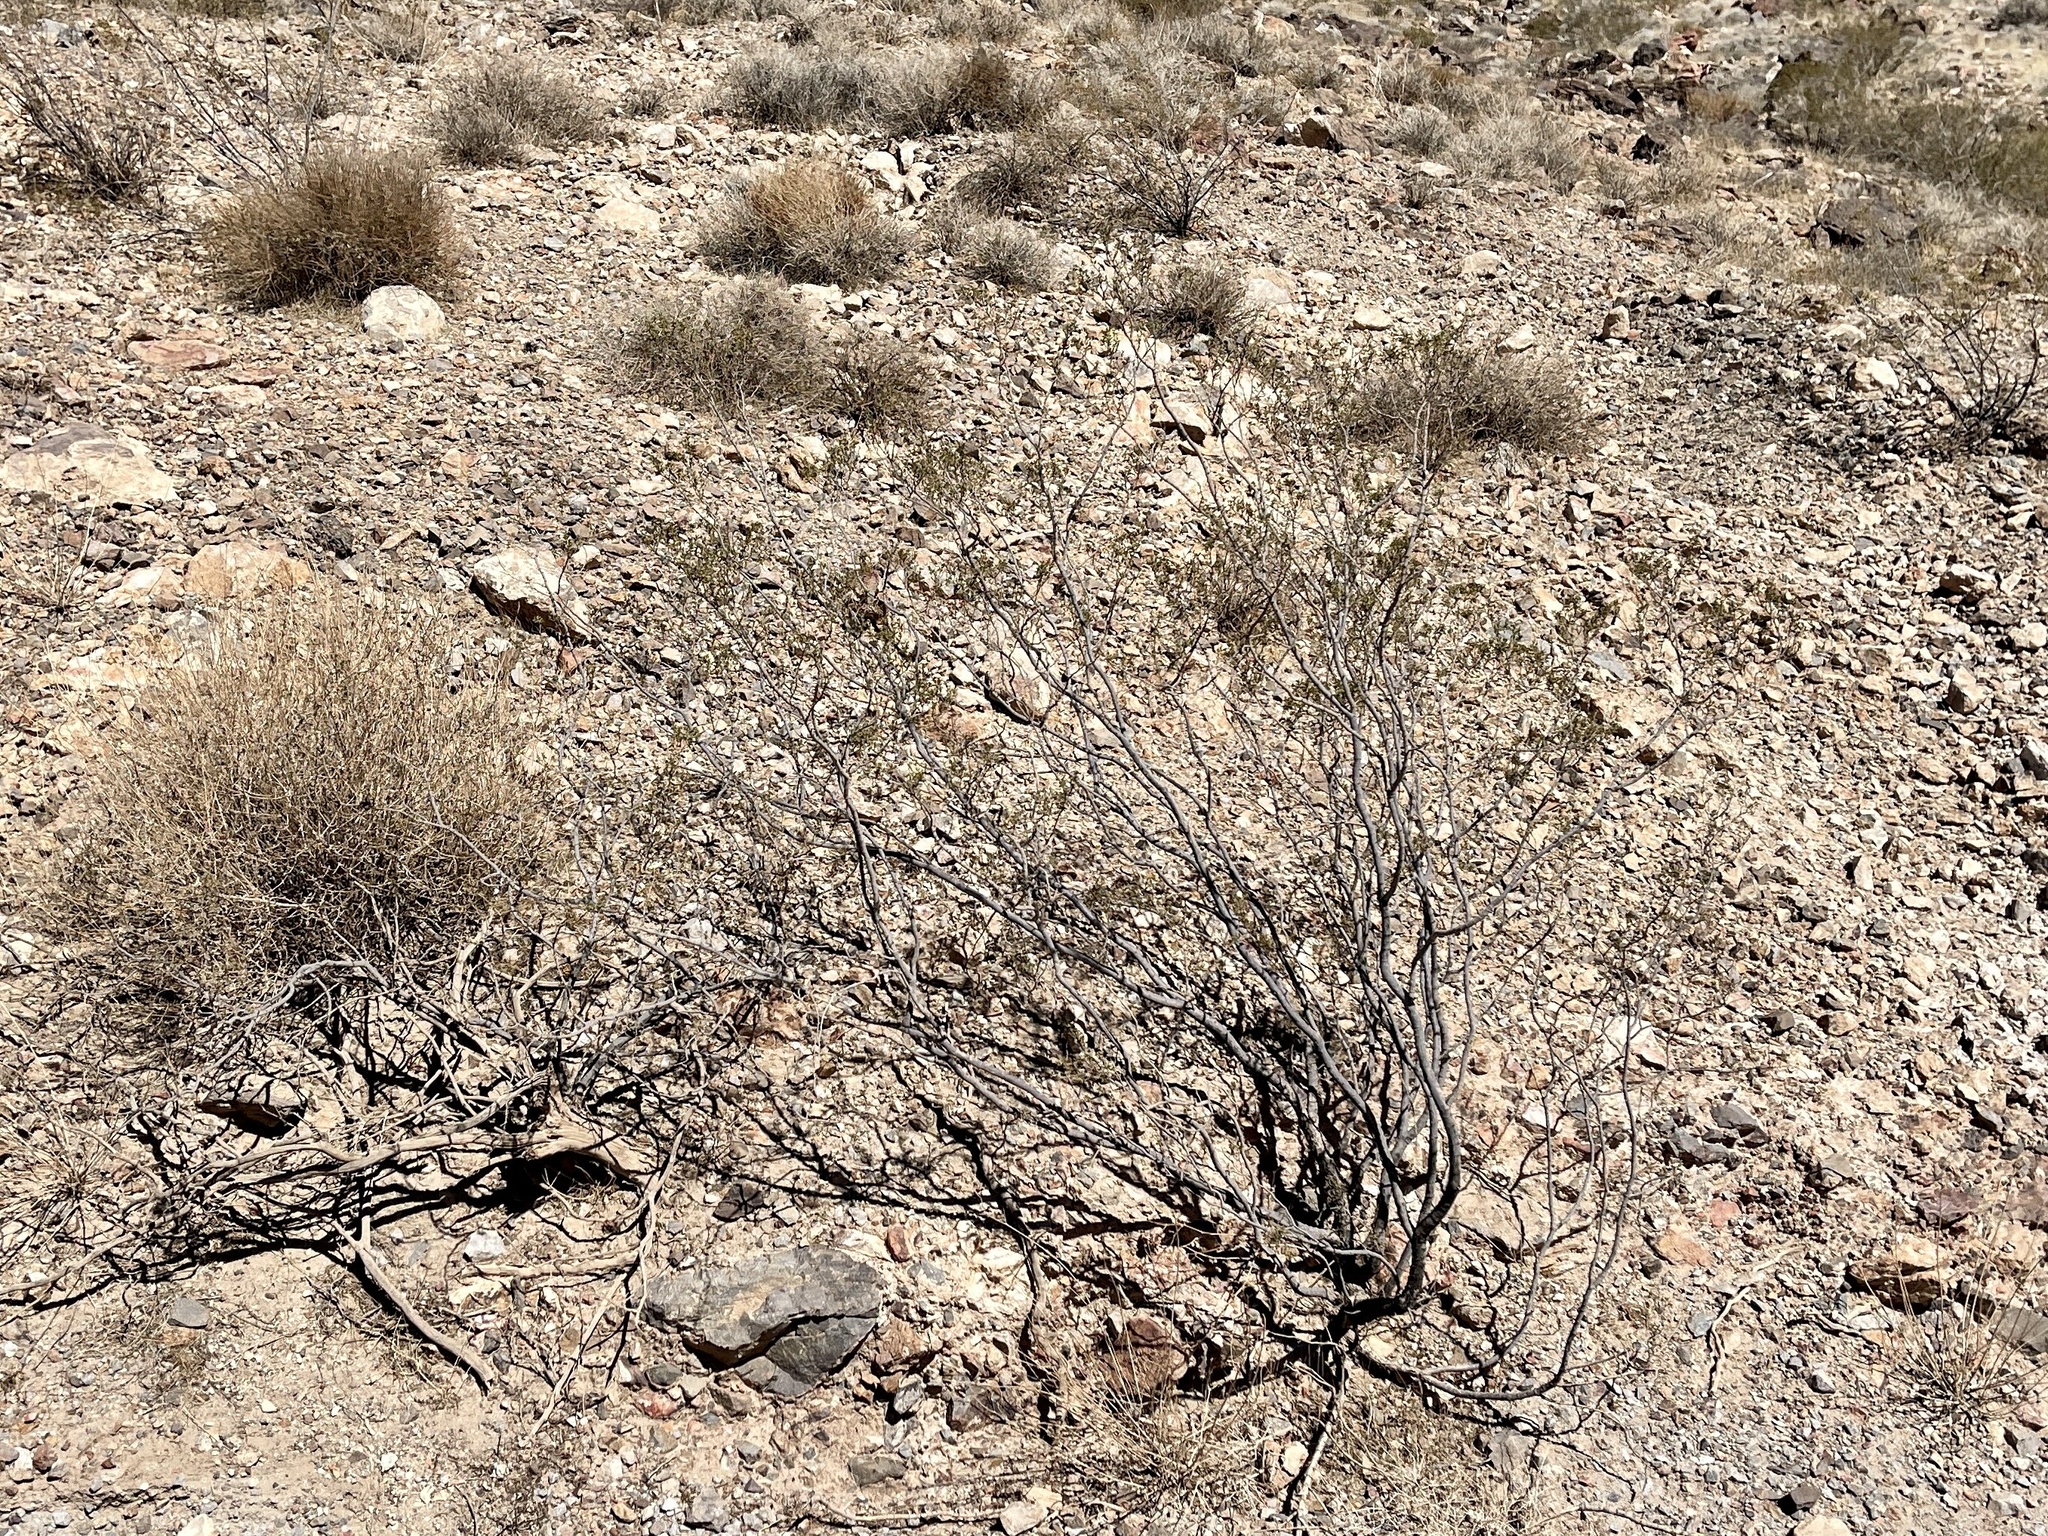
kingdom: Plantae
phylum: Tracheophyta
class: Magnoliopsida
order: Zygophyllales
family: Zygophyllaceae
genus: Larrea
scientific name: Larrea tridentata
